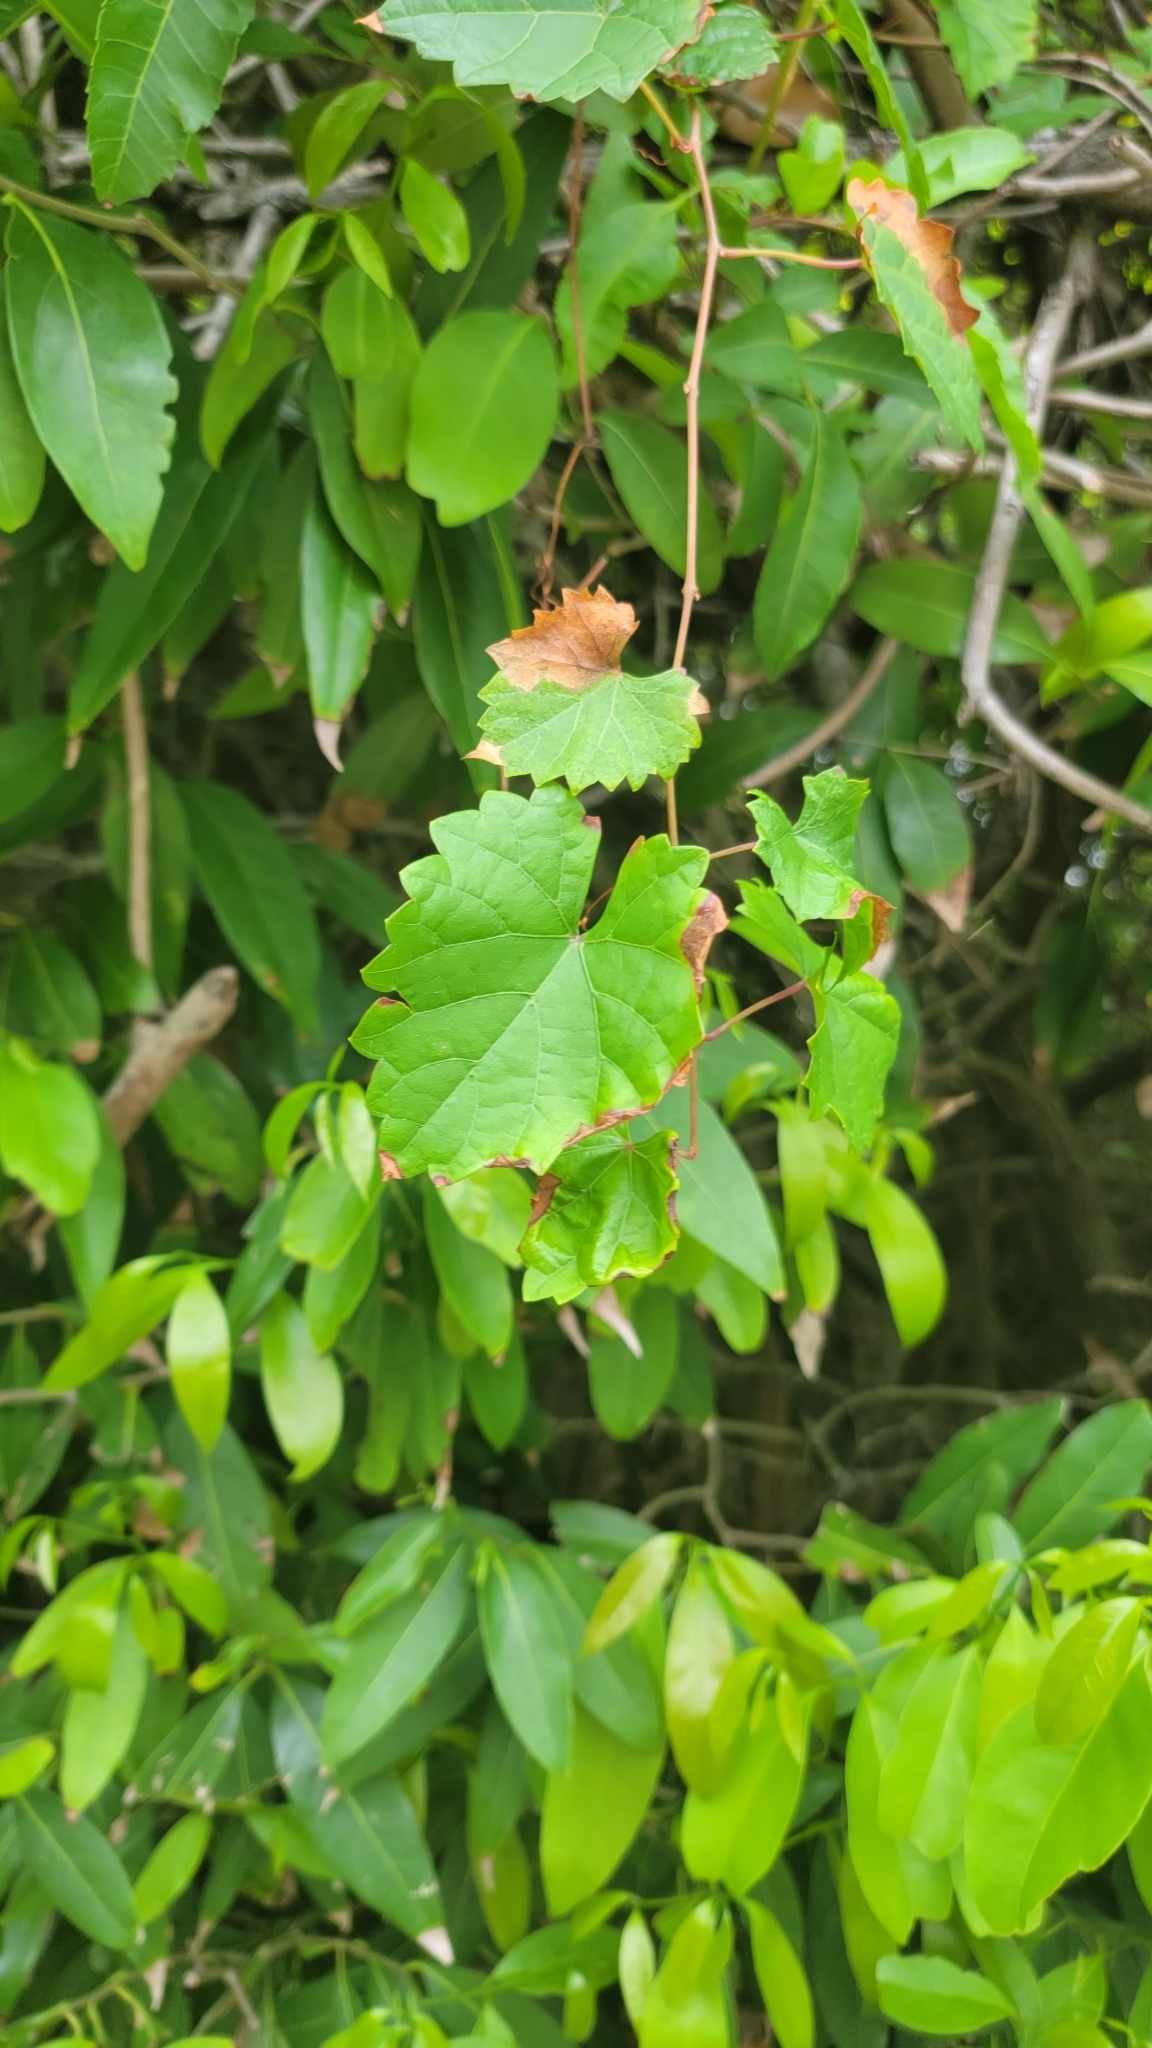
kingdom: Plantae
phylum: Tracheophyta
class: Magnoliopsida
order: Vitales
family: Vitaceae
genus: Vitis
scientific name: Vitis rotundifolia
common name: Muscadine grape
